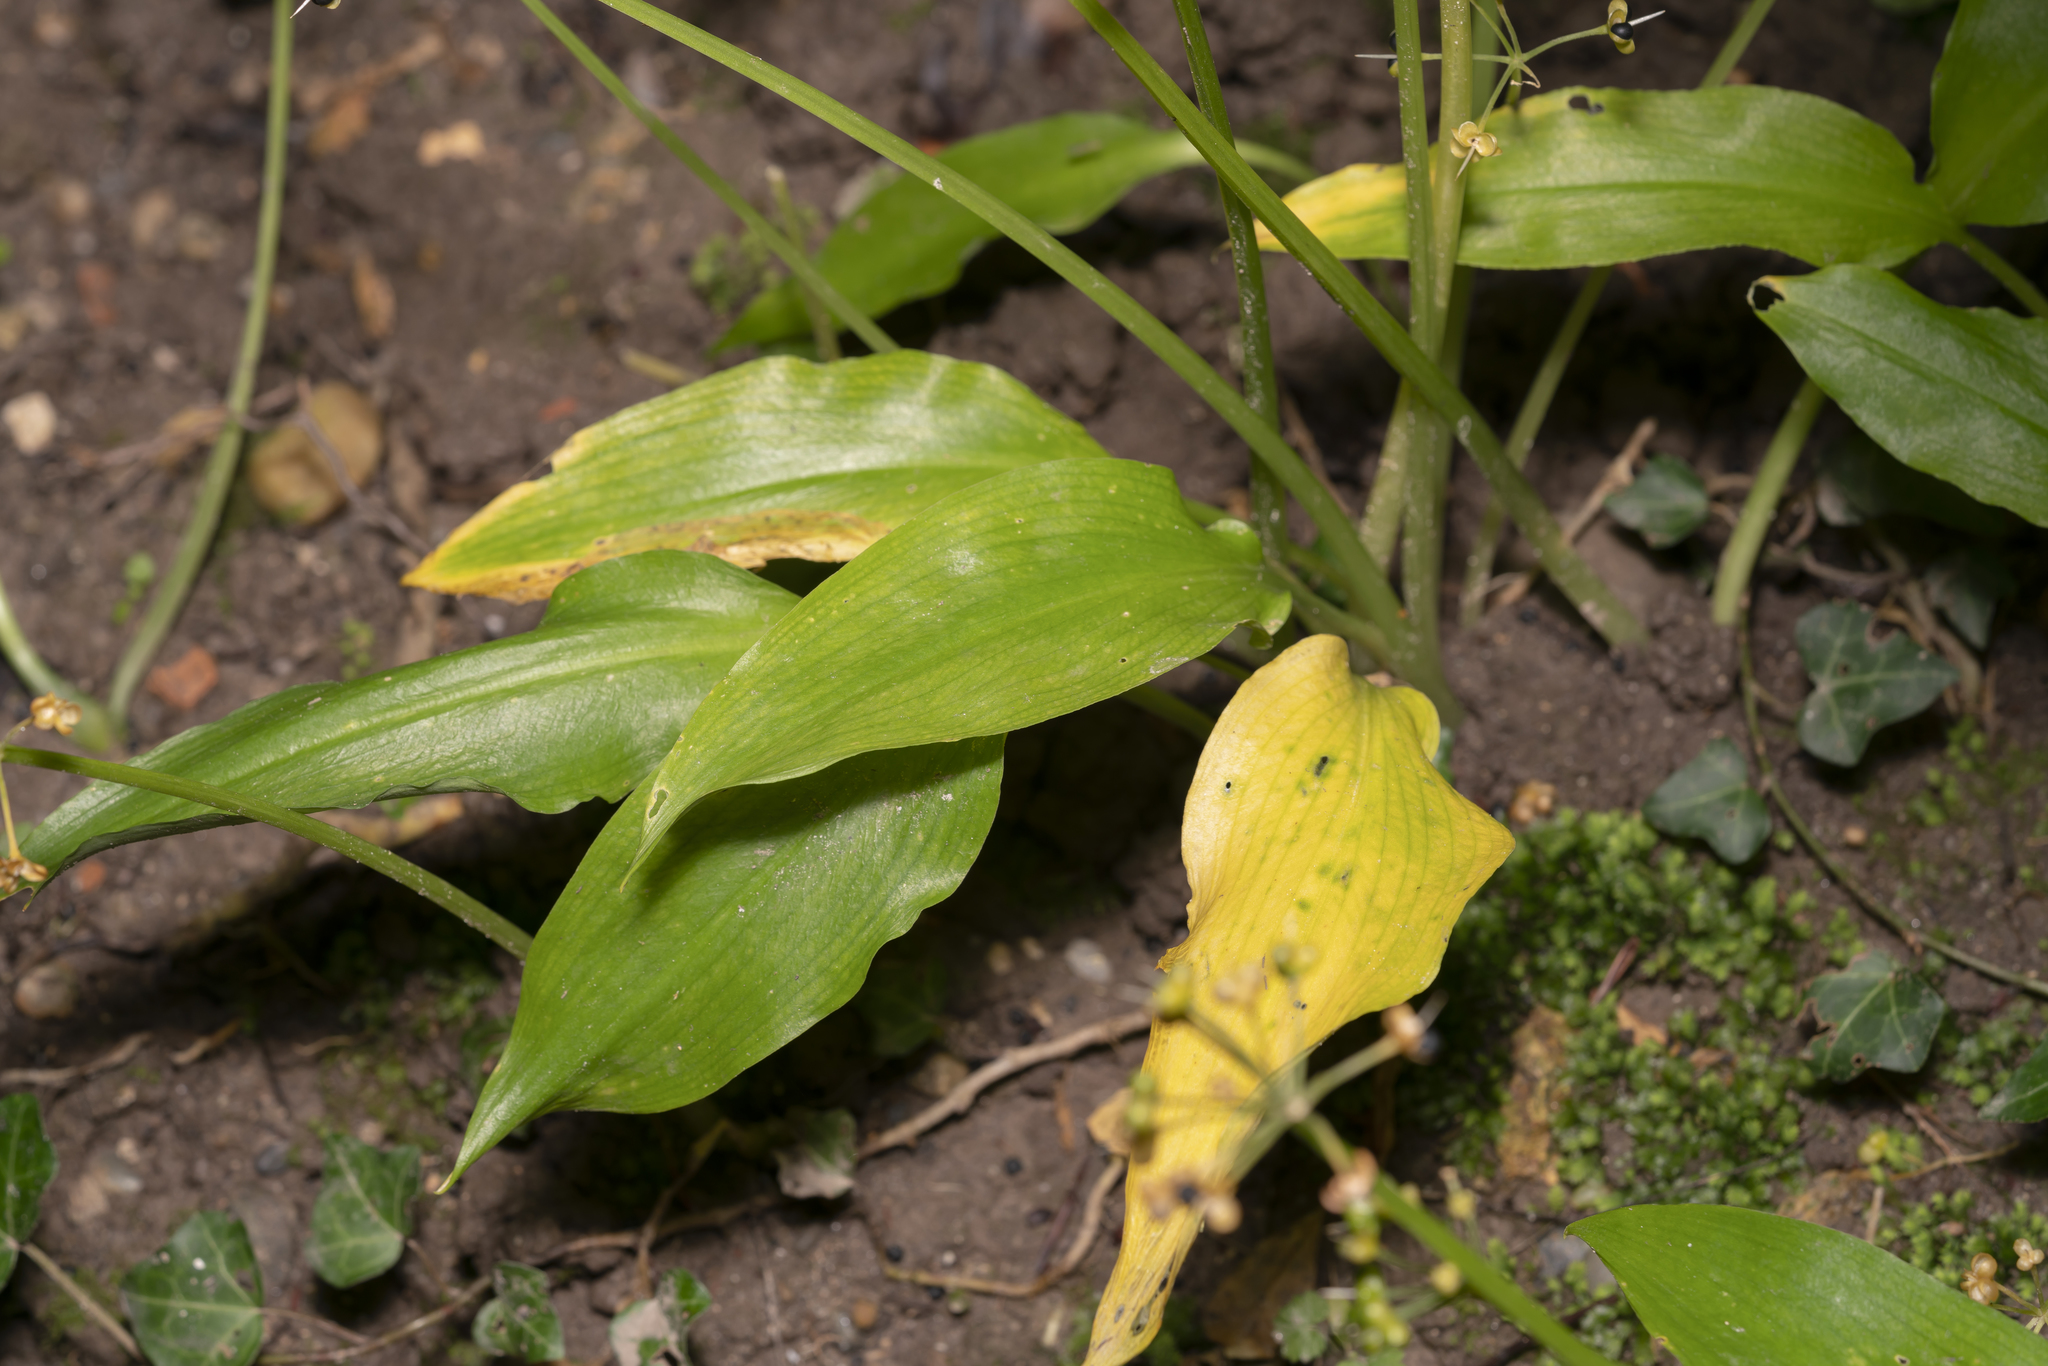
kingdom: Plantae
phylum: Tracheophyta
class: Liliopsida
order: Asparagales
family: Amaryllidaceae
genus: Allium
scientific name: Allium ursinum
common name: Ramsons
